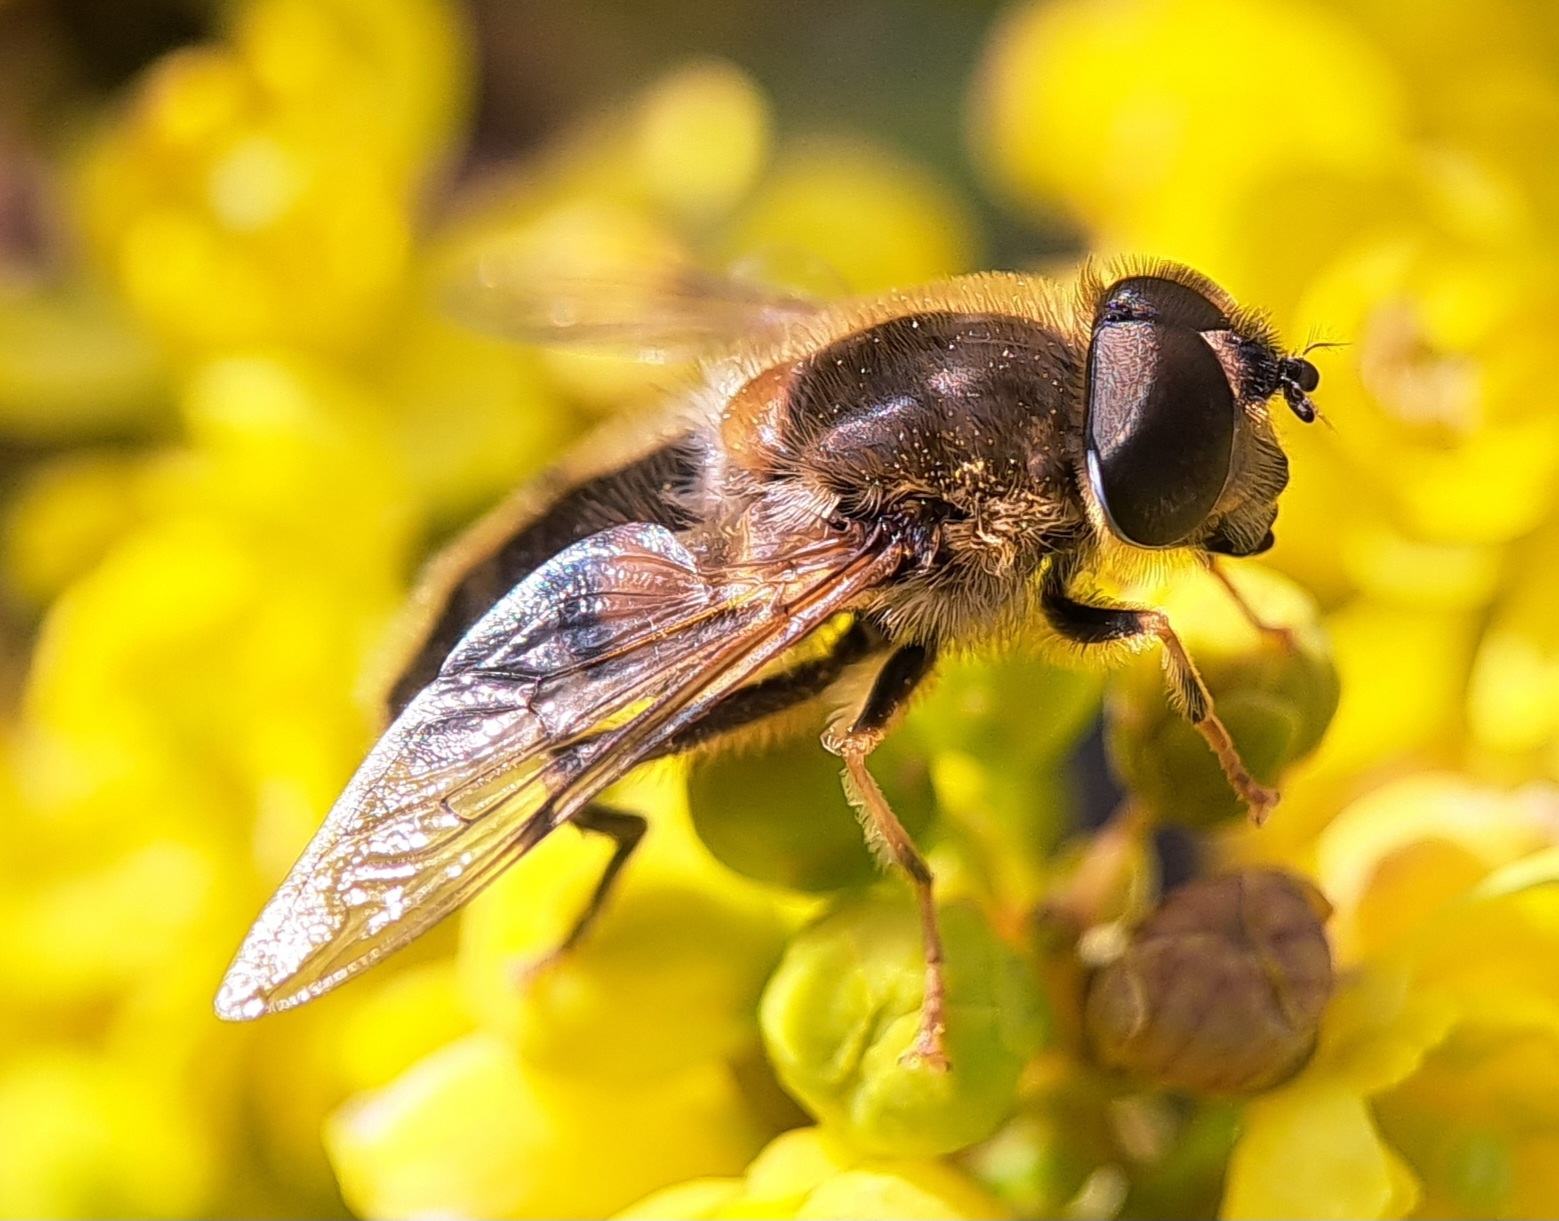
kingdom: Animalia
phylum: Arthropoda
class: Insecta
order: Diptera
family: Syrphidae
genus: Eristalis
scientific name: Eristalis pertinax
